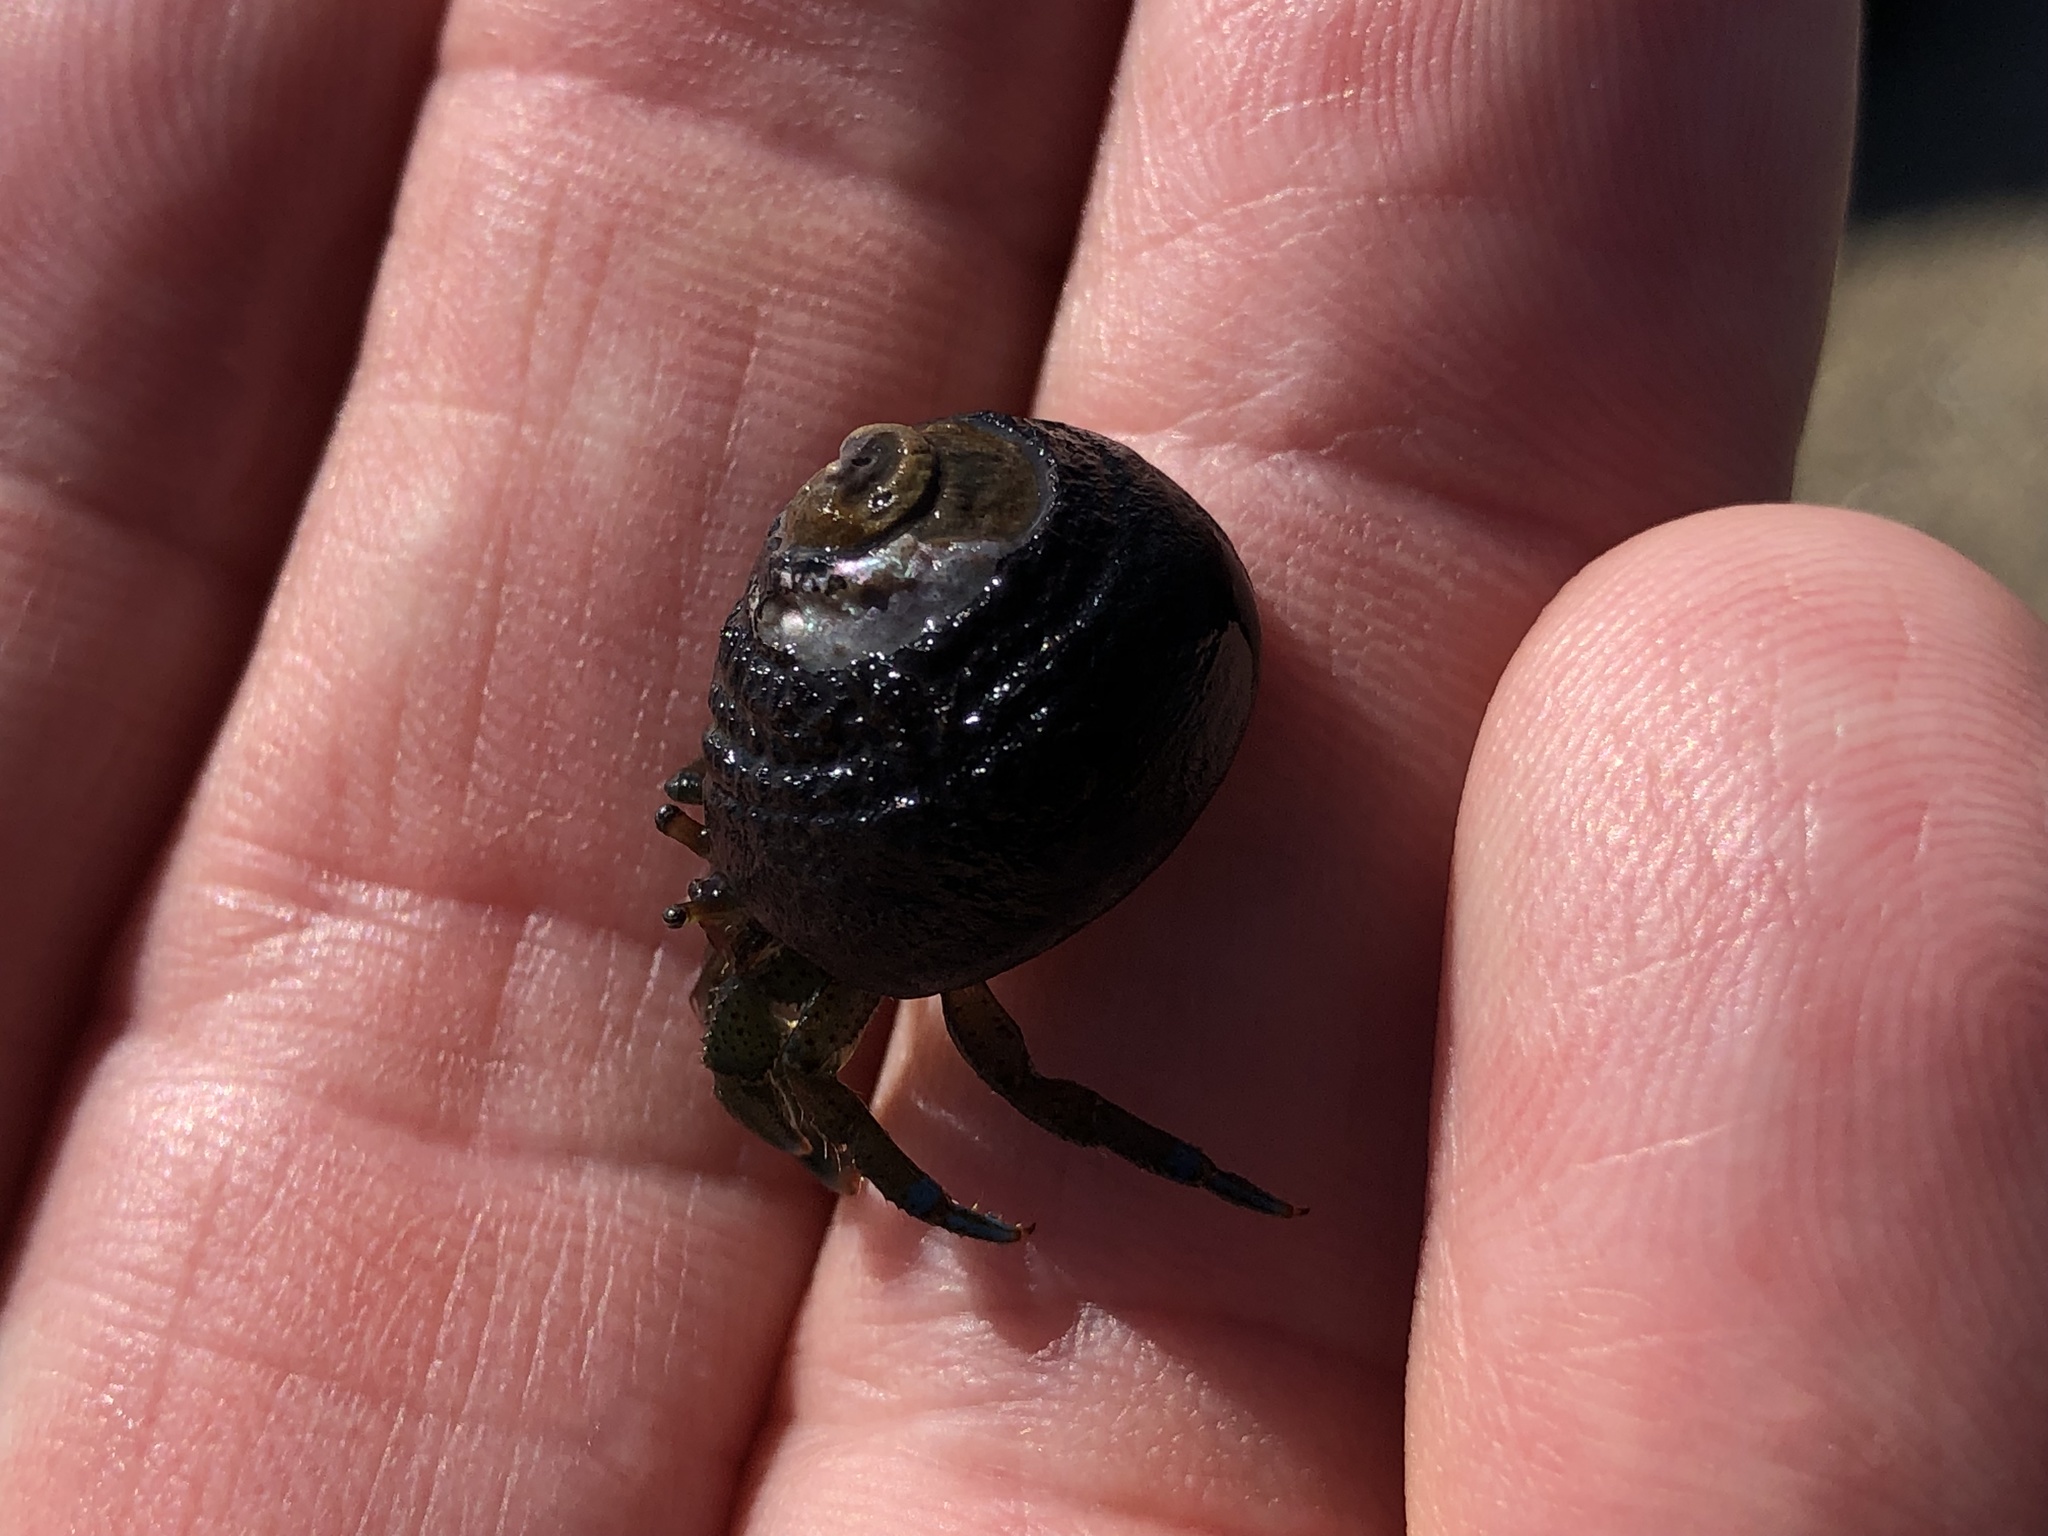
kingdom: Animalia
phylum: Arthropoda
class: Malacostraca
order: Decapoda
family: Paguridae
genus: Pagurus
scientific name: Pagurus samuelis
